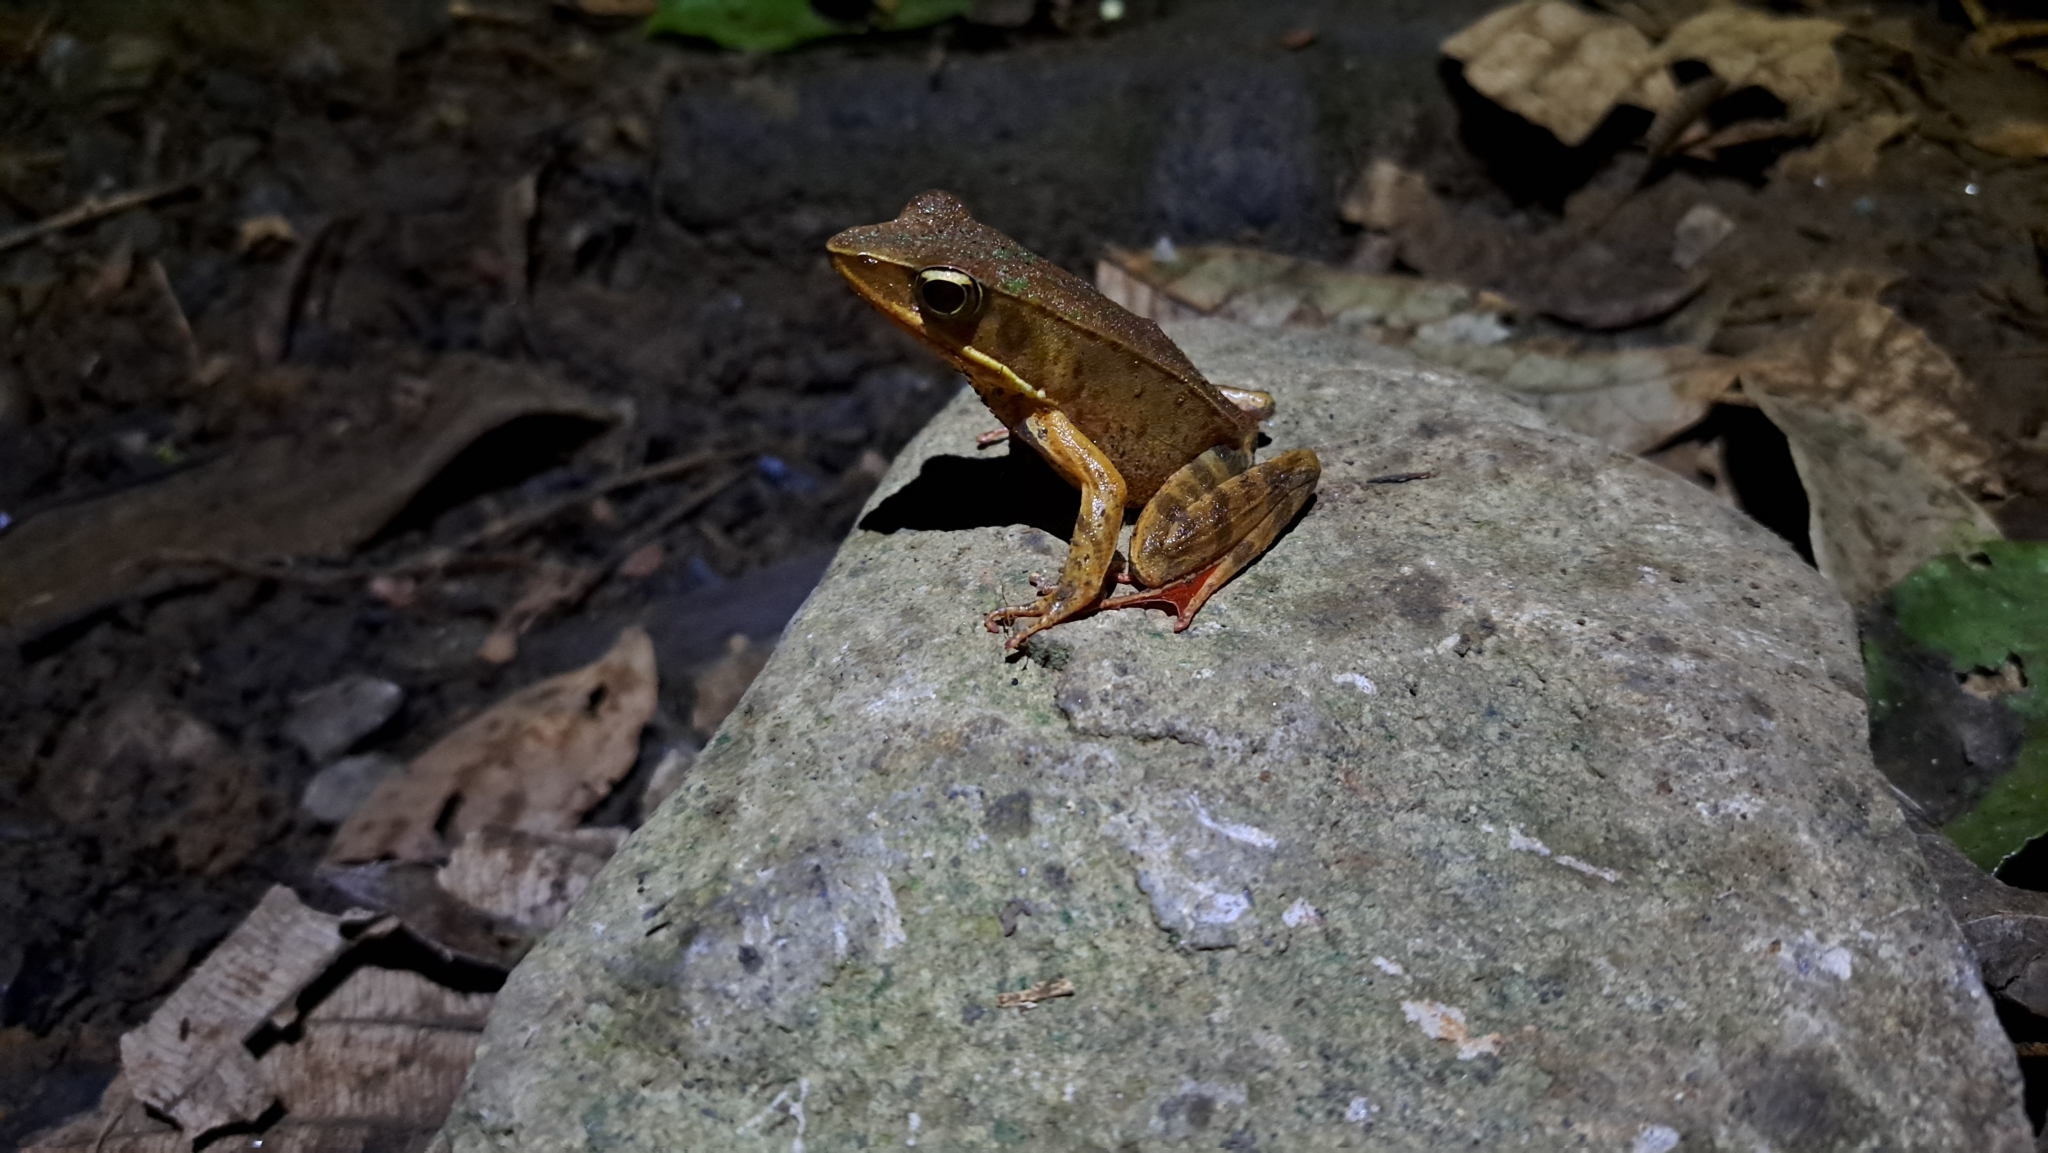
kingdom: Animalia
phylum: Chordata
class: Amphibia
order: Anura
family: Ranidae
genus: Lithobates
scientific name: Lithobates warszewitschii
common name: Warszewitsch's frog
